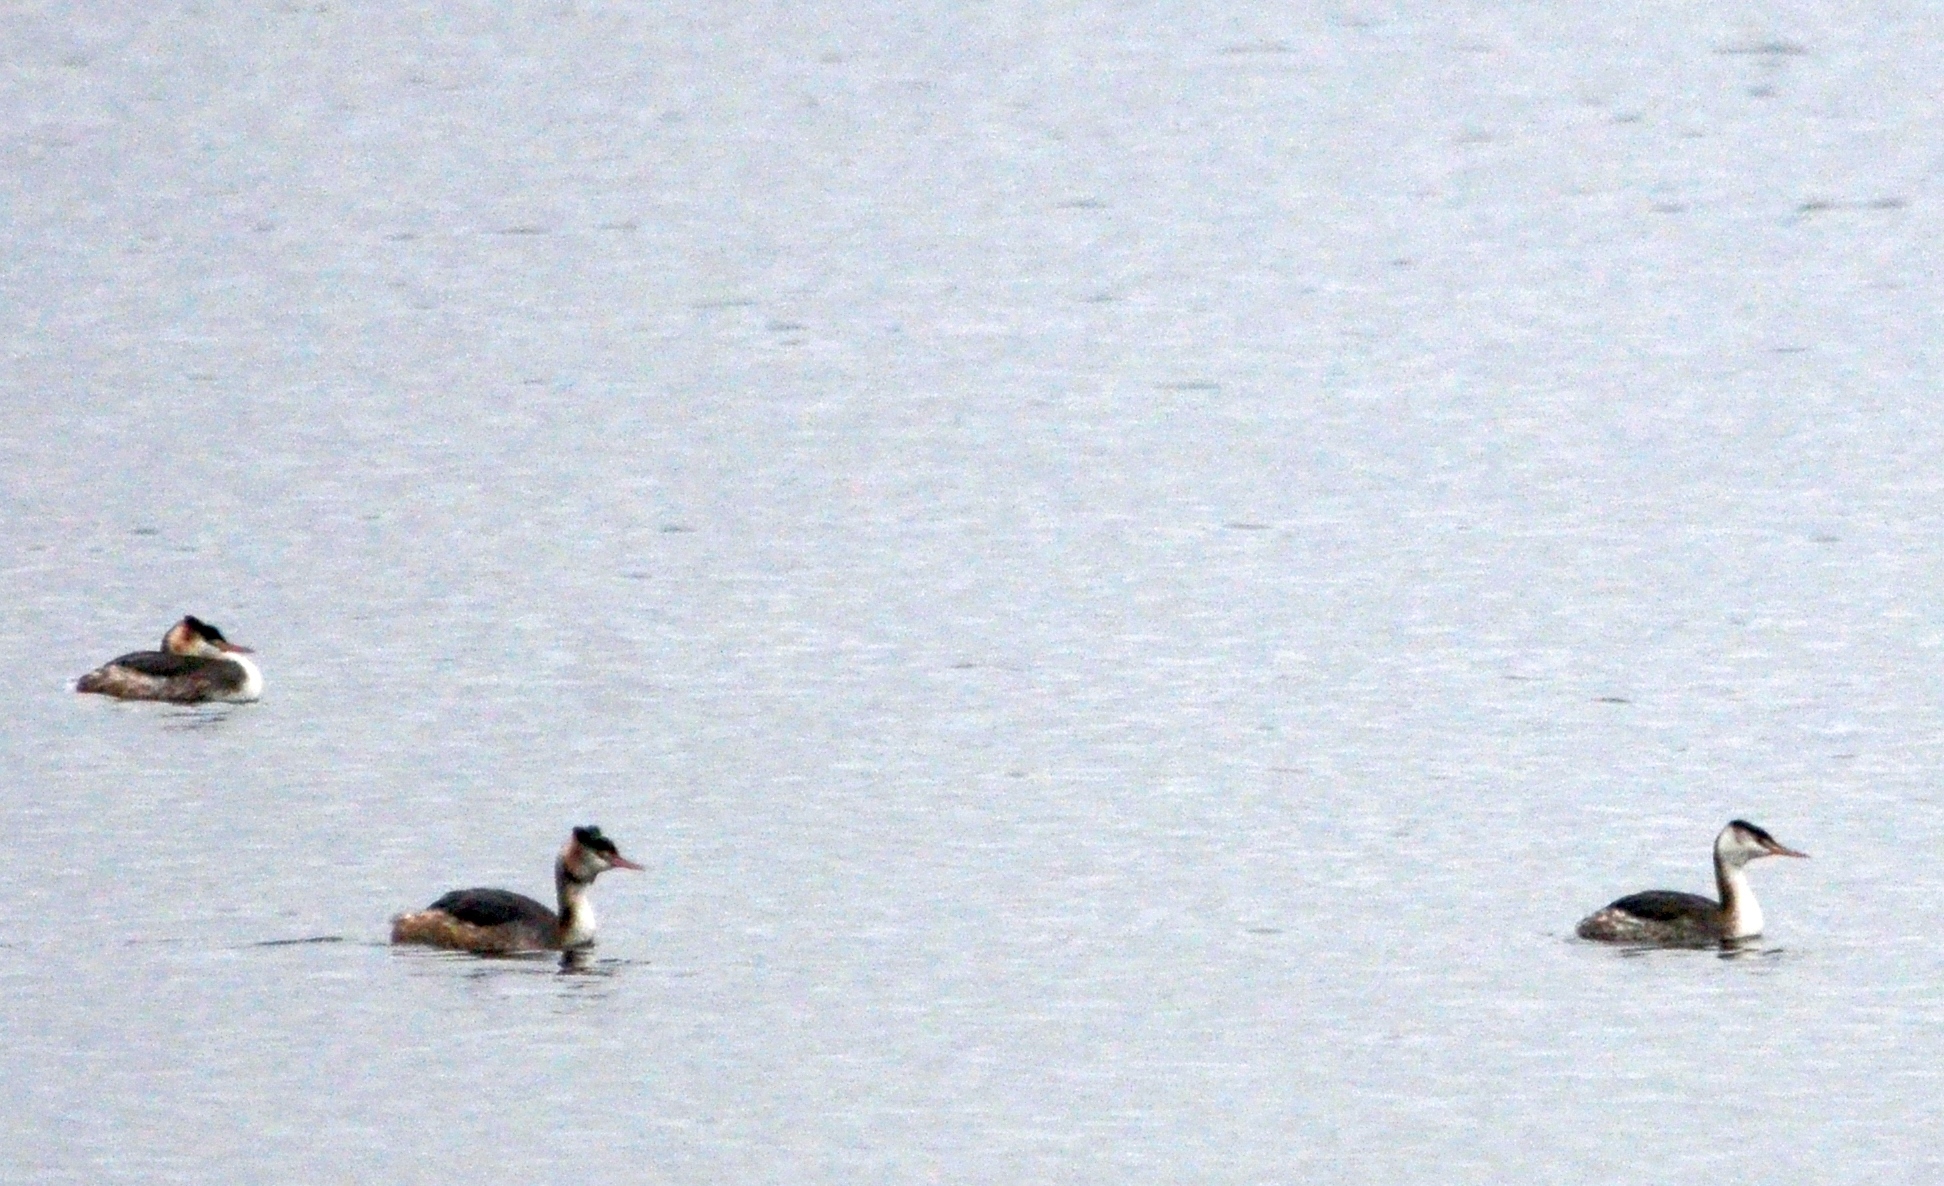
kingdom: Animalia
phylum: Chordata
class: Aves
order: Podicipediformes
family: Podicipedidae
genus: Podiceps
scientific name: Podiceps cristatus
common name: Great crested grebe
